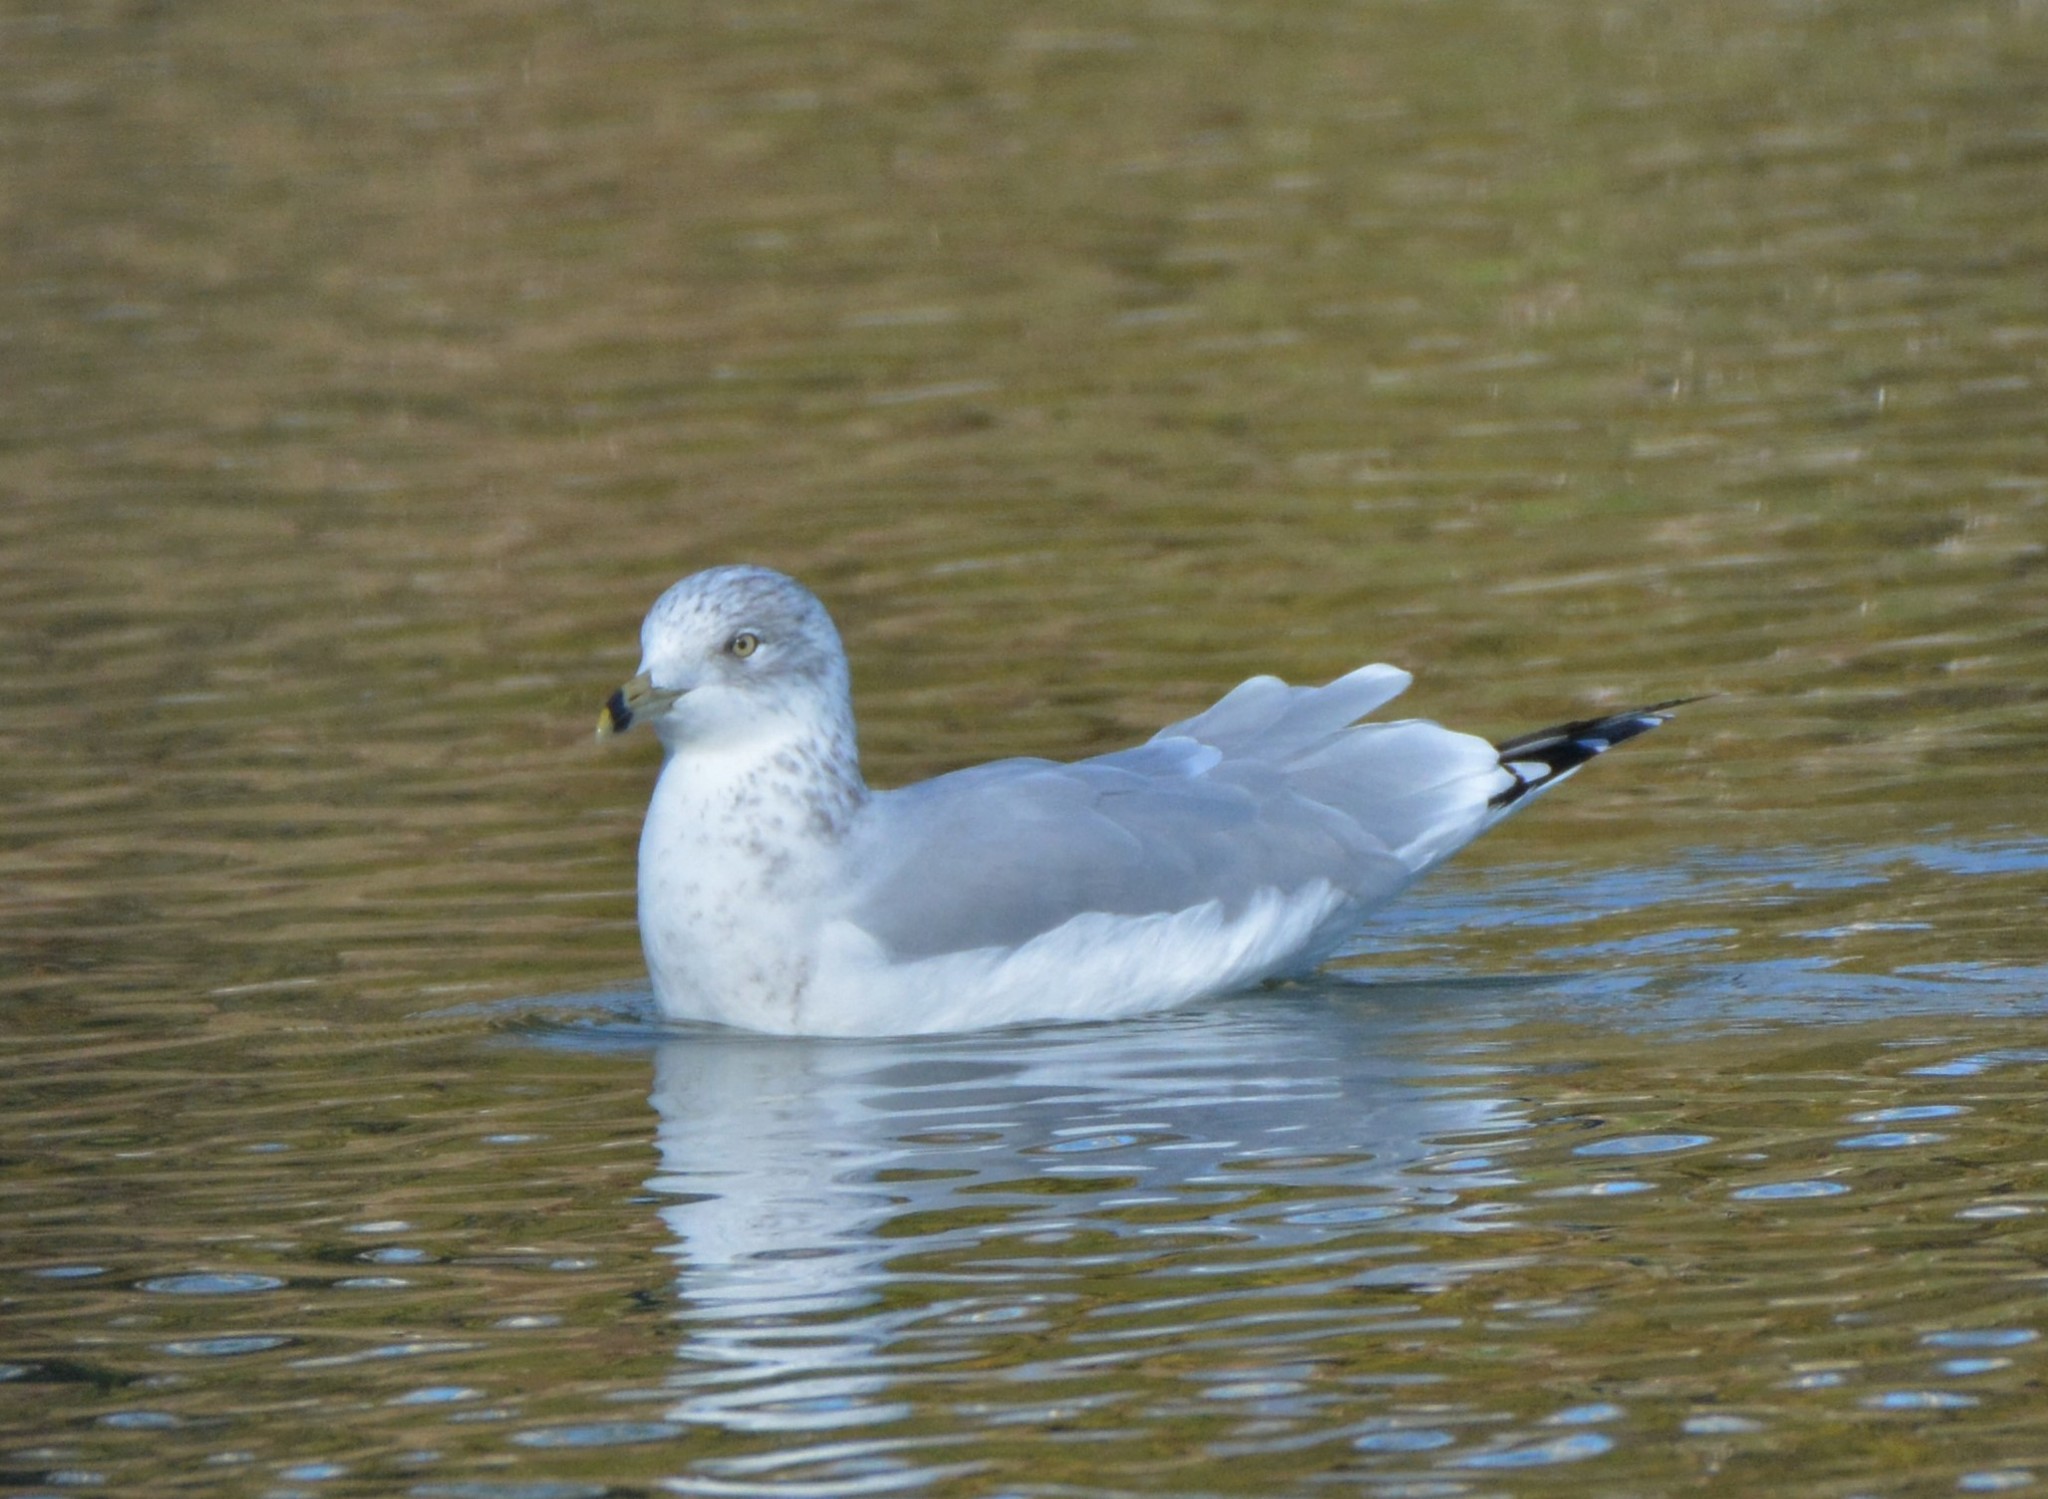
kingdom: Animalia
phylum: Chordata
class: Aves
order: Charadriiformes
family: Laridae
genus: Larus
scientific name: Larus delawarensis
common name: Ring-billed gull
